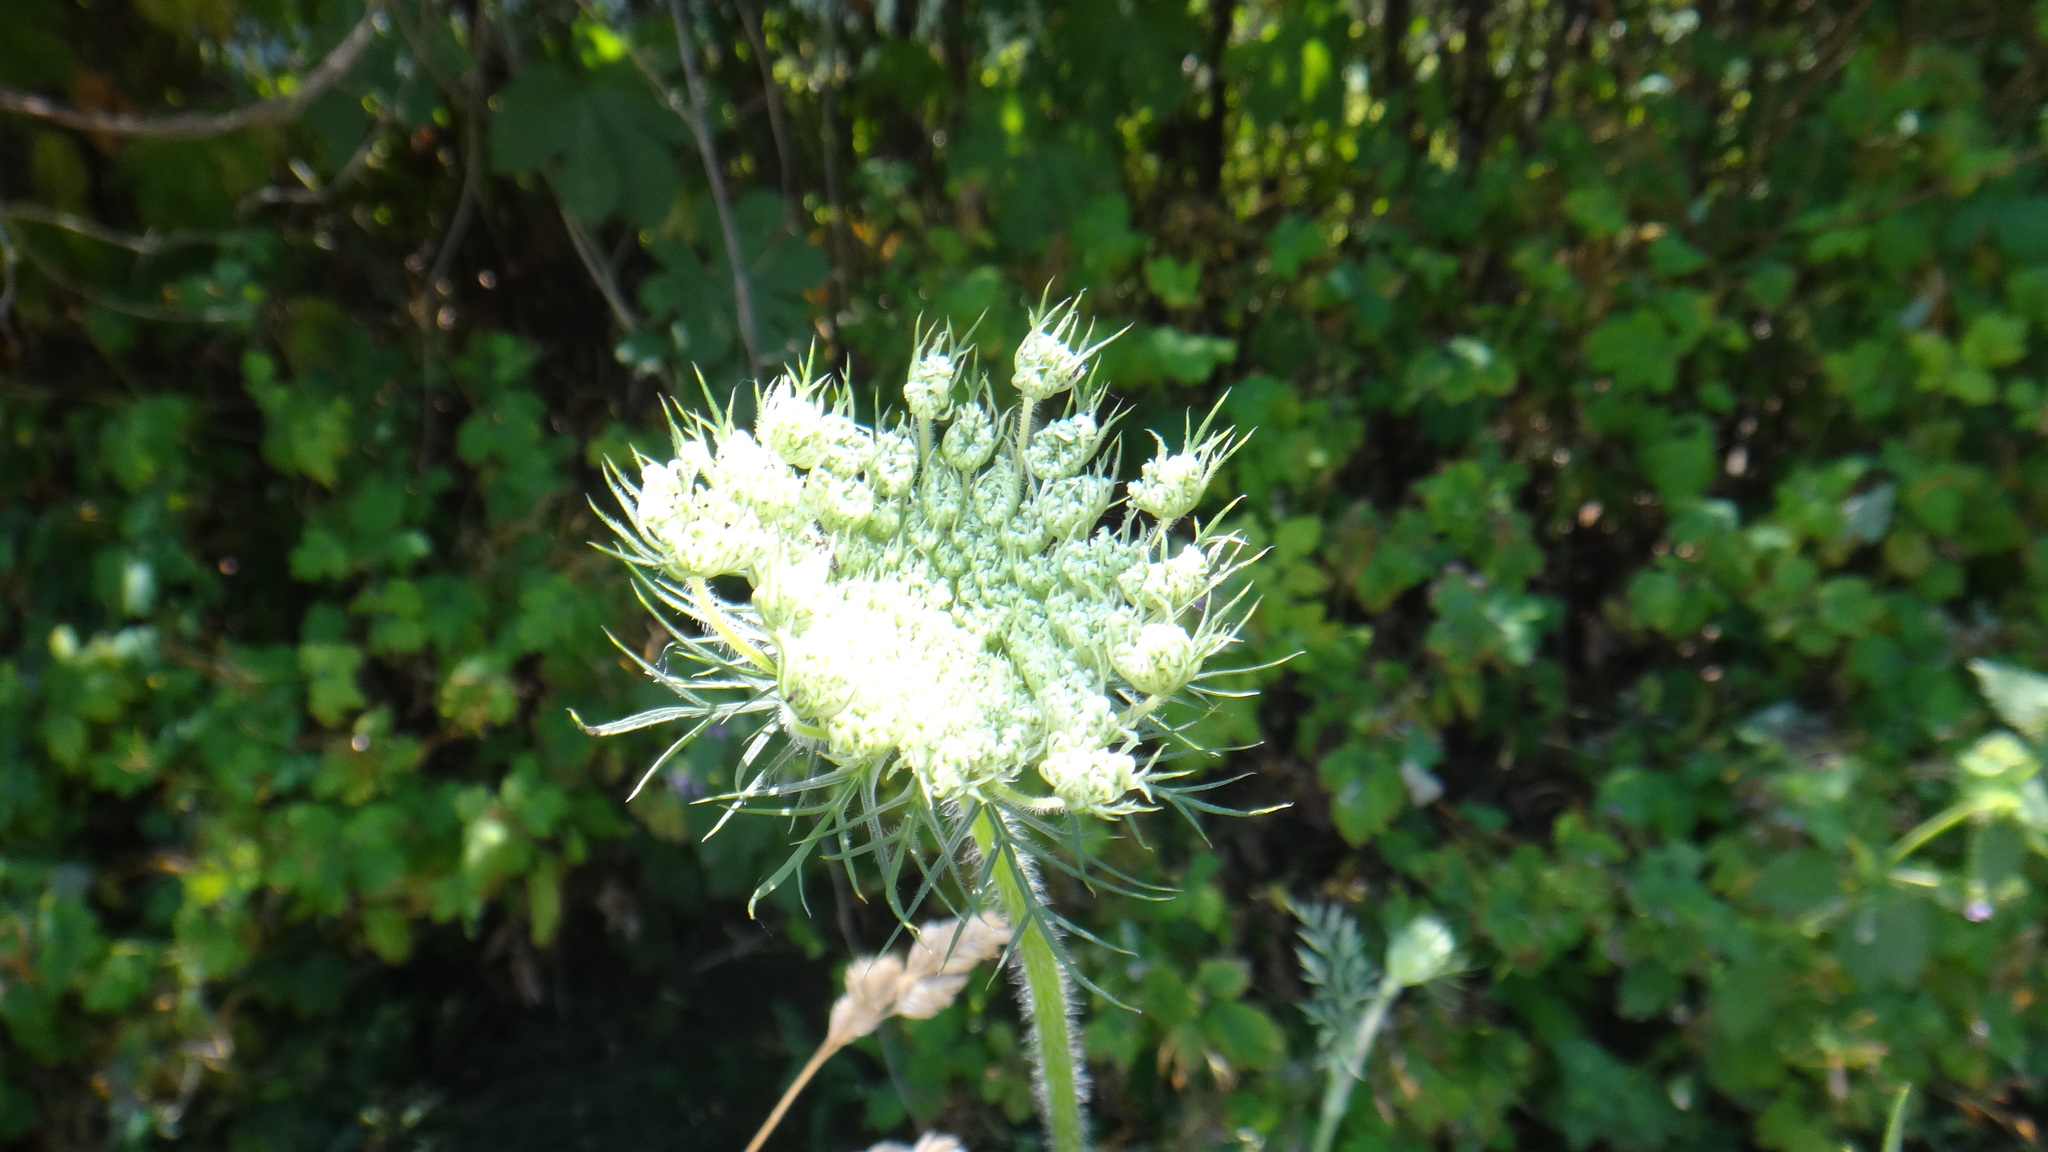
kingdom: Plantae
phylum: Tracheophyta
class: Magnoliopsida
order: Apiales
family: Apiaceae
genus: Daucus
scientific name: Daucus carota
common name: Wild carrot
